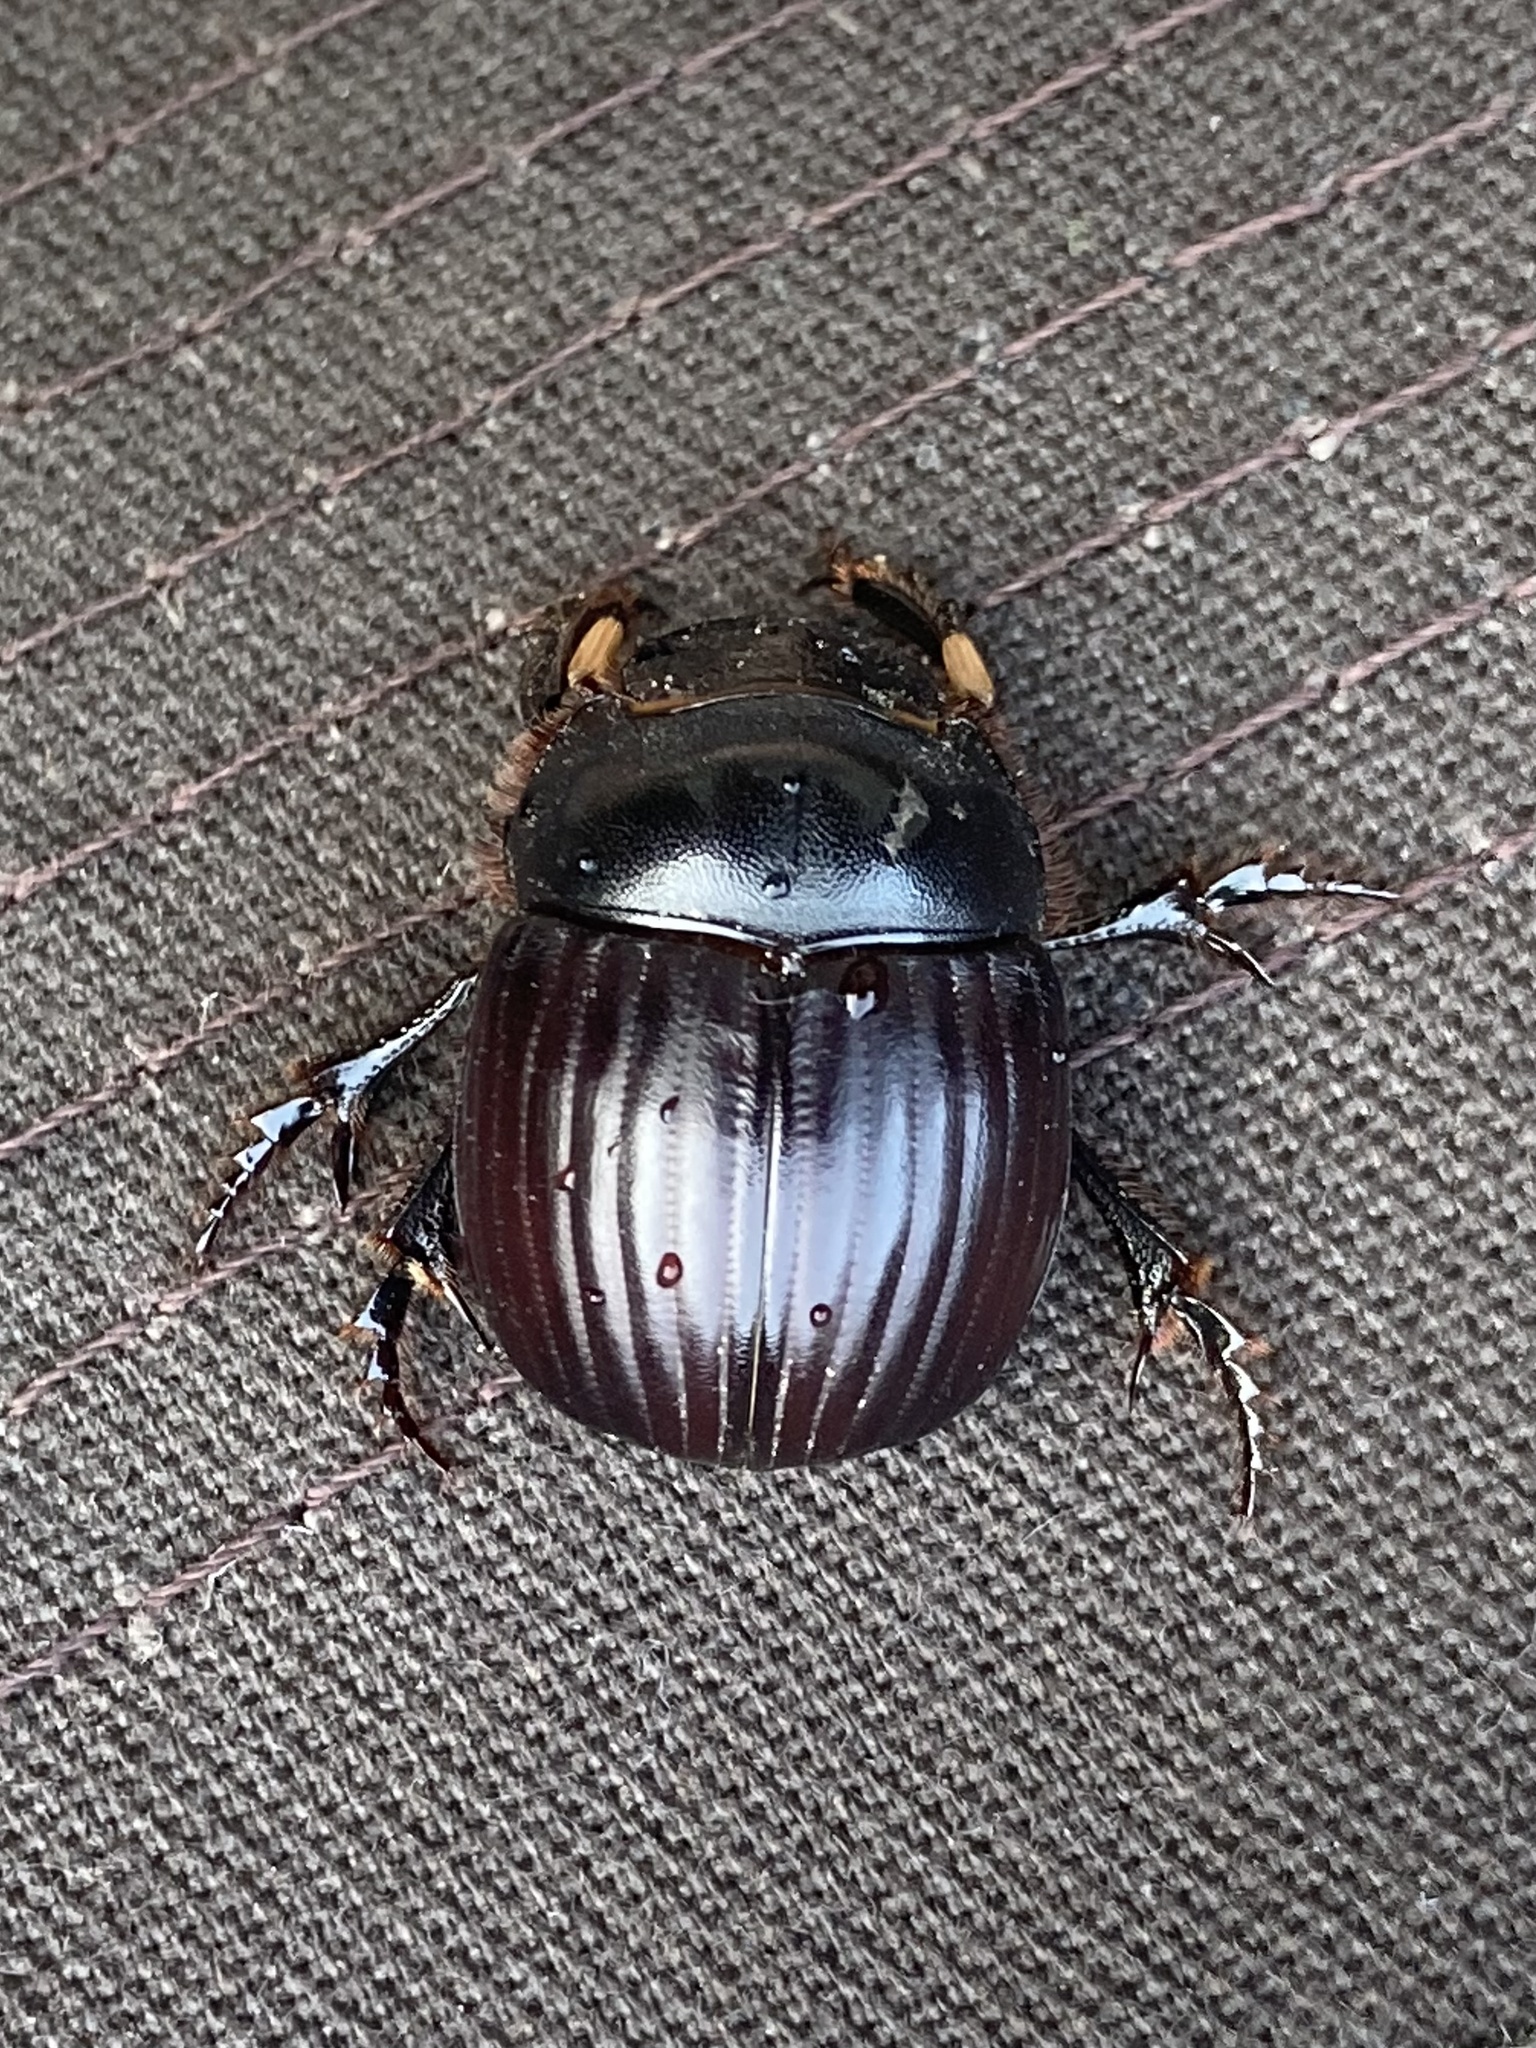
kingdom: Animalia
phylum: Arthropoda
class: Insecta
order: Coleoptera
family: Scarabaeidae
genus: Dichotomius
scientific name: Dichotomius carolinus
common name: Carolina copris
